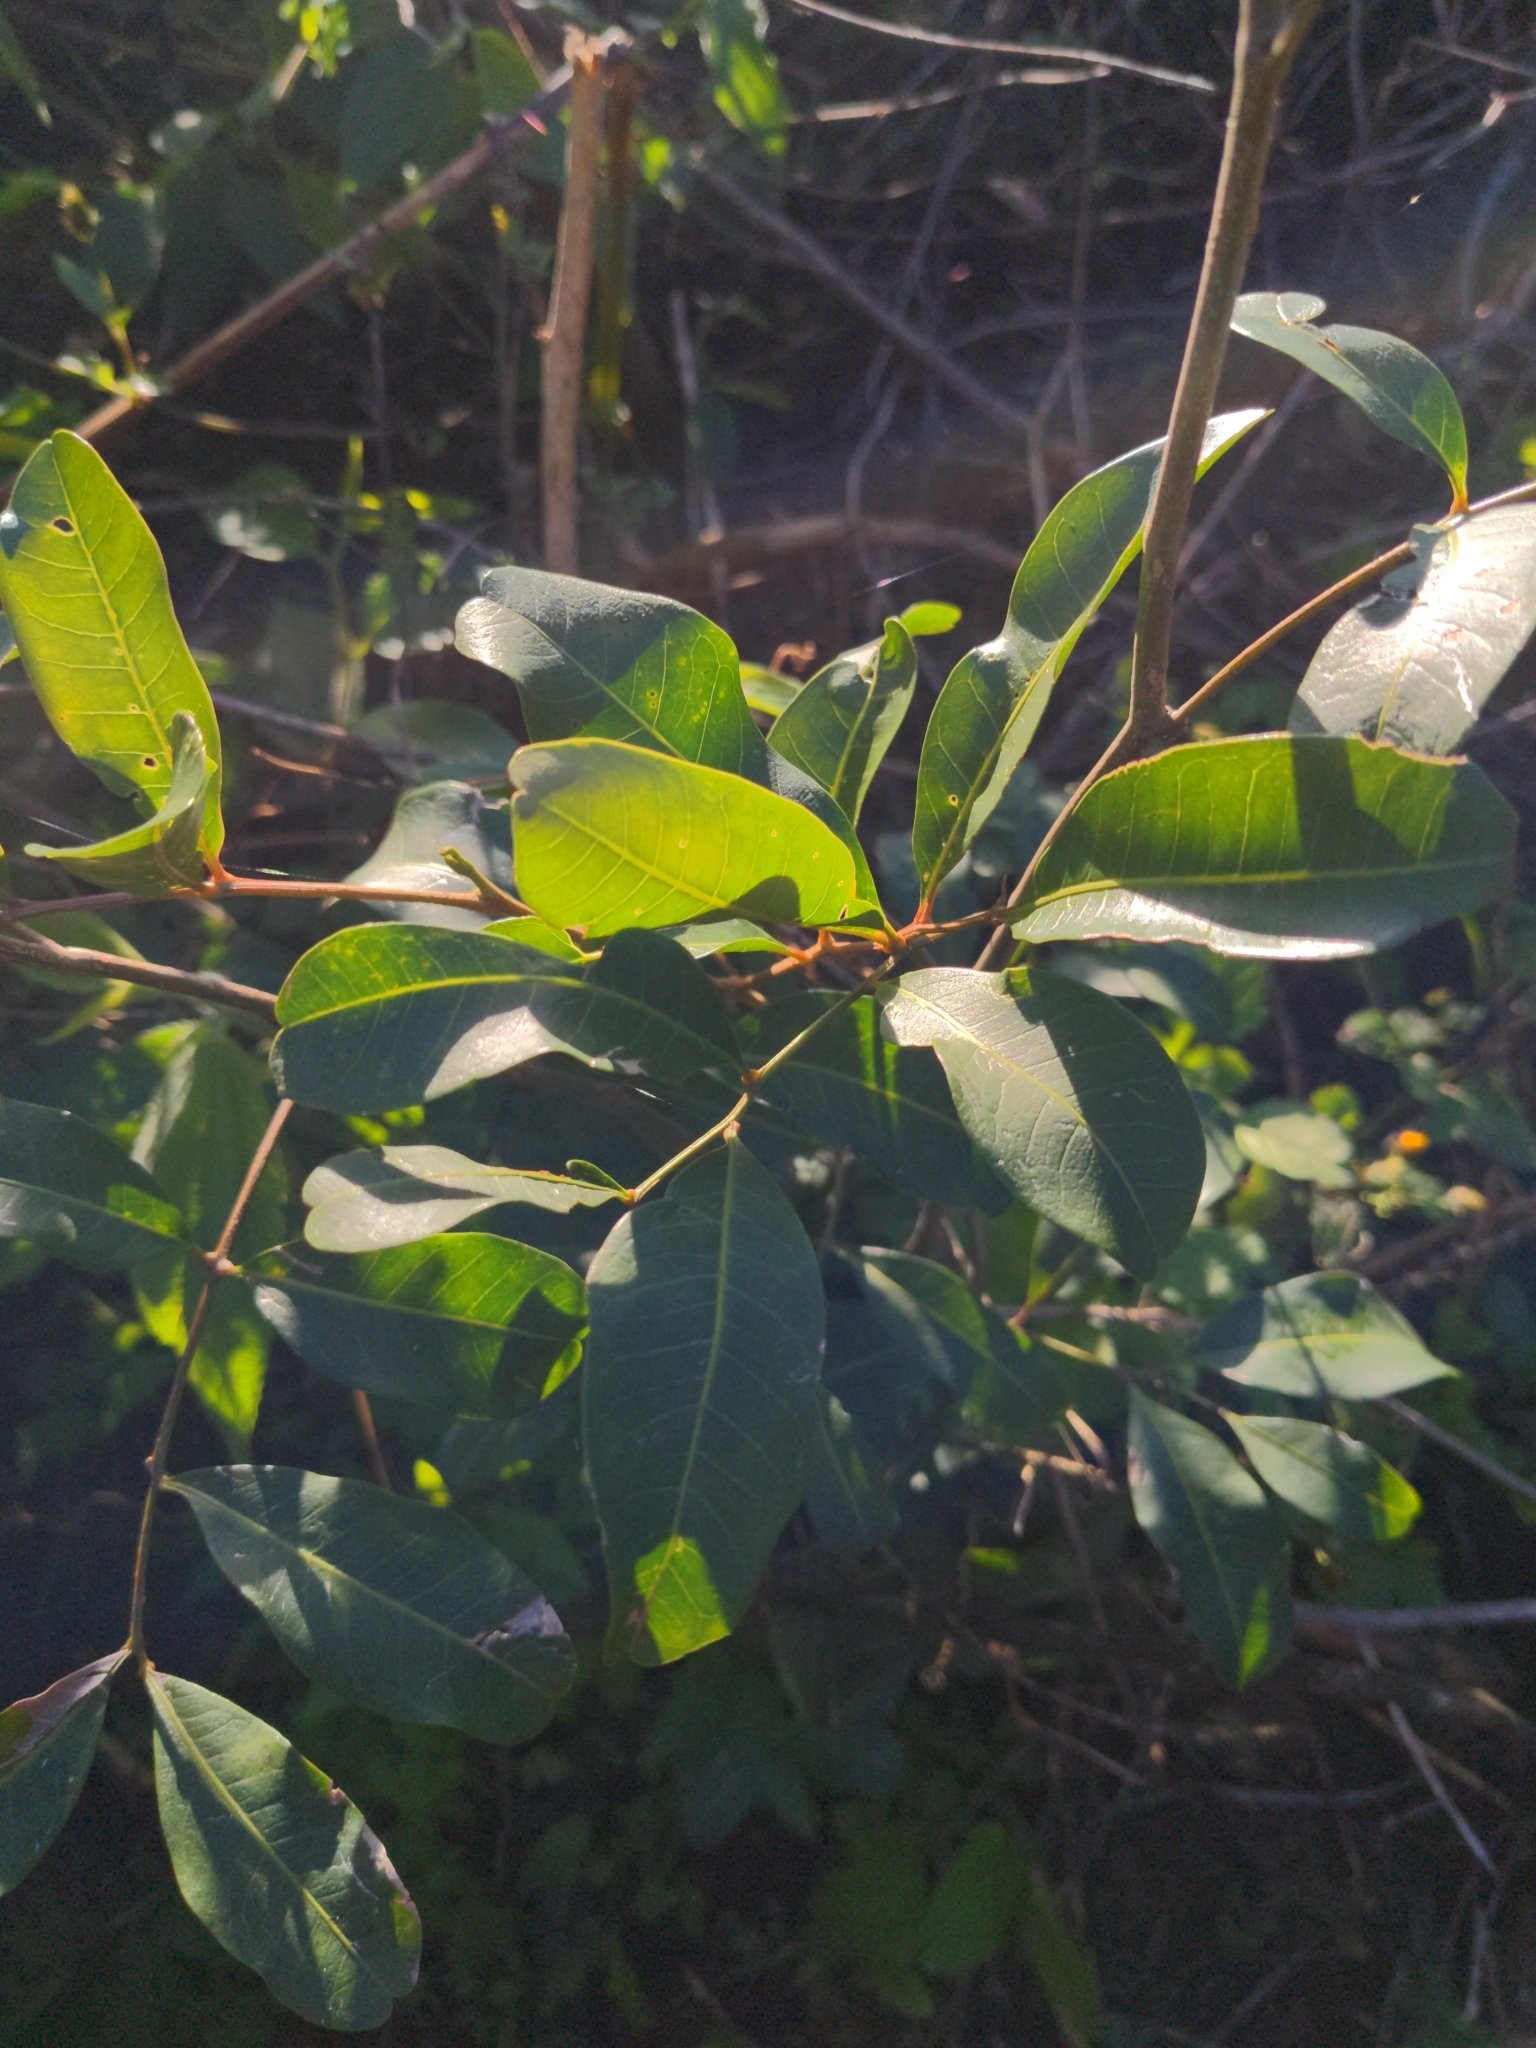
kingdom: Plantae
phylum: Tracheophyta
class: Magnoliopsida
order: Sapindales
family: Sapindaceae
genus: Cupaniopsis
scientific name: Cupaniopsis anacardioides
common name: Carrotwood
